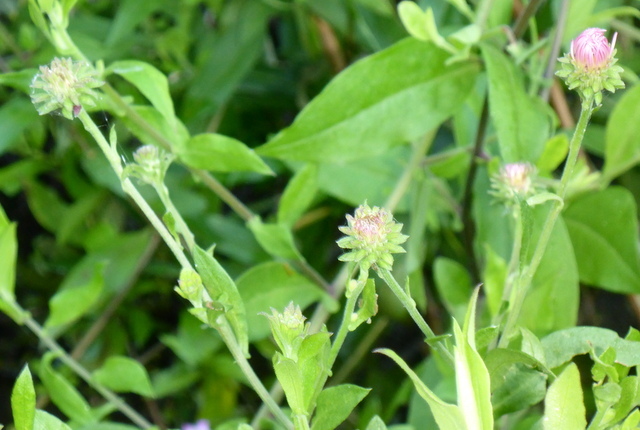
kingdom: Plantae
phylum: Tracheophyta
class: Magnoliopsida
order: Asterales
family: Asteraceae
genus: Ampelaster
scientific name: Ampelaster carolinianus
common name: Climbing aster
